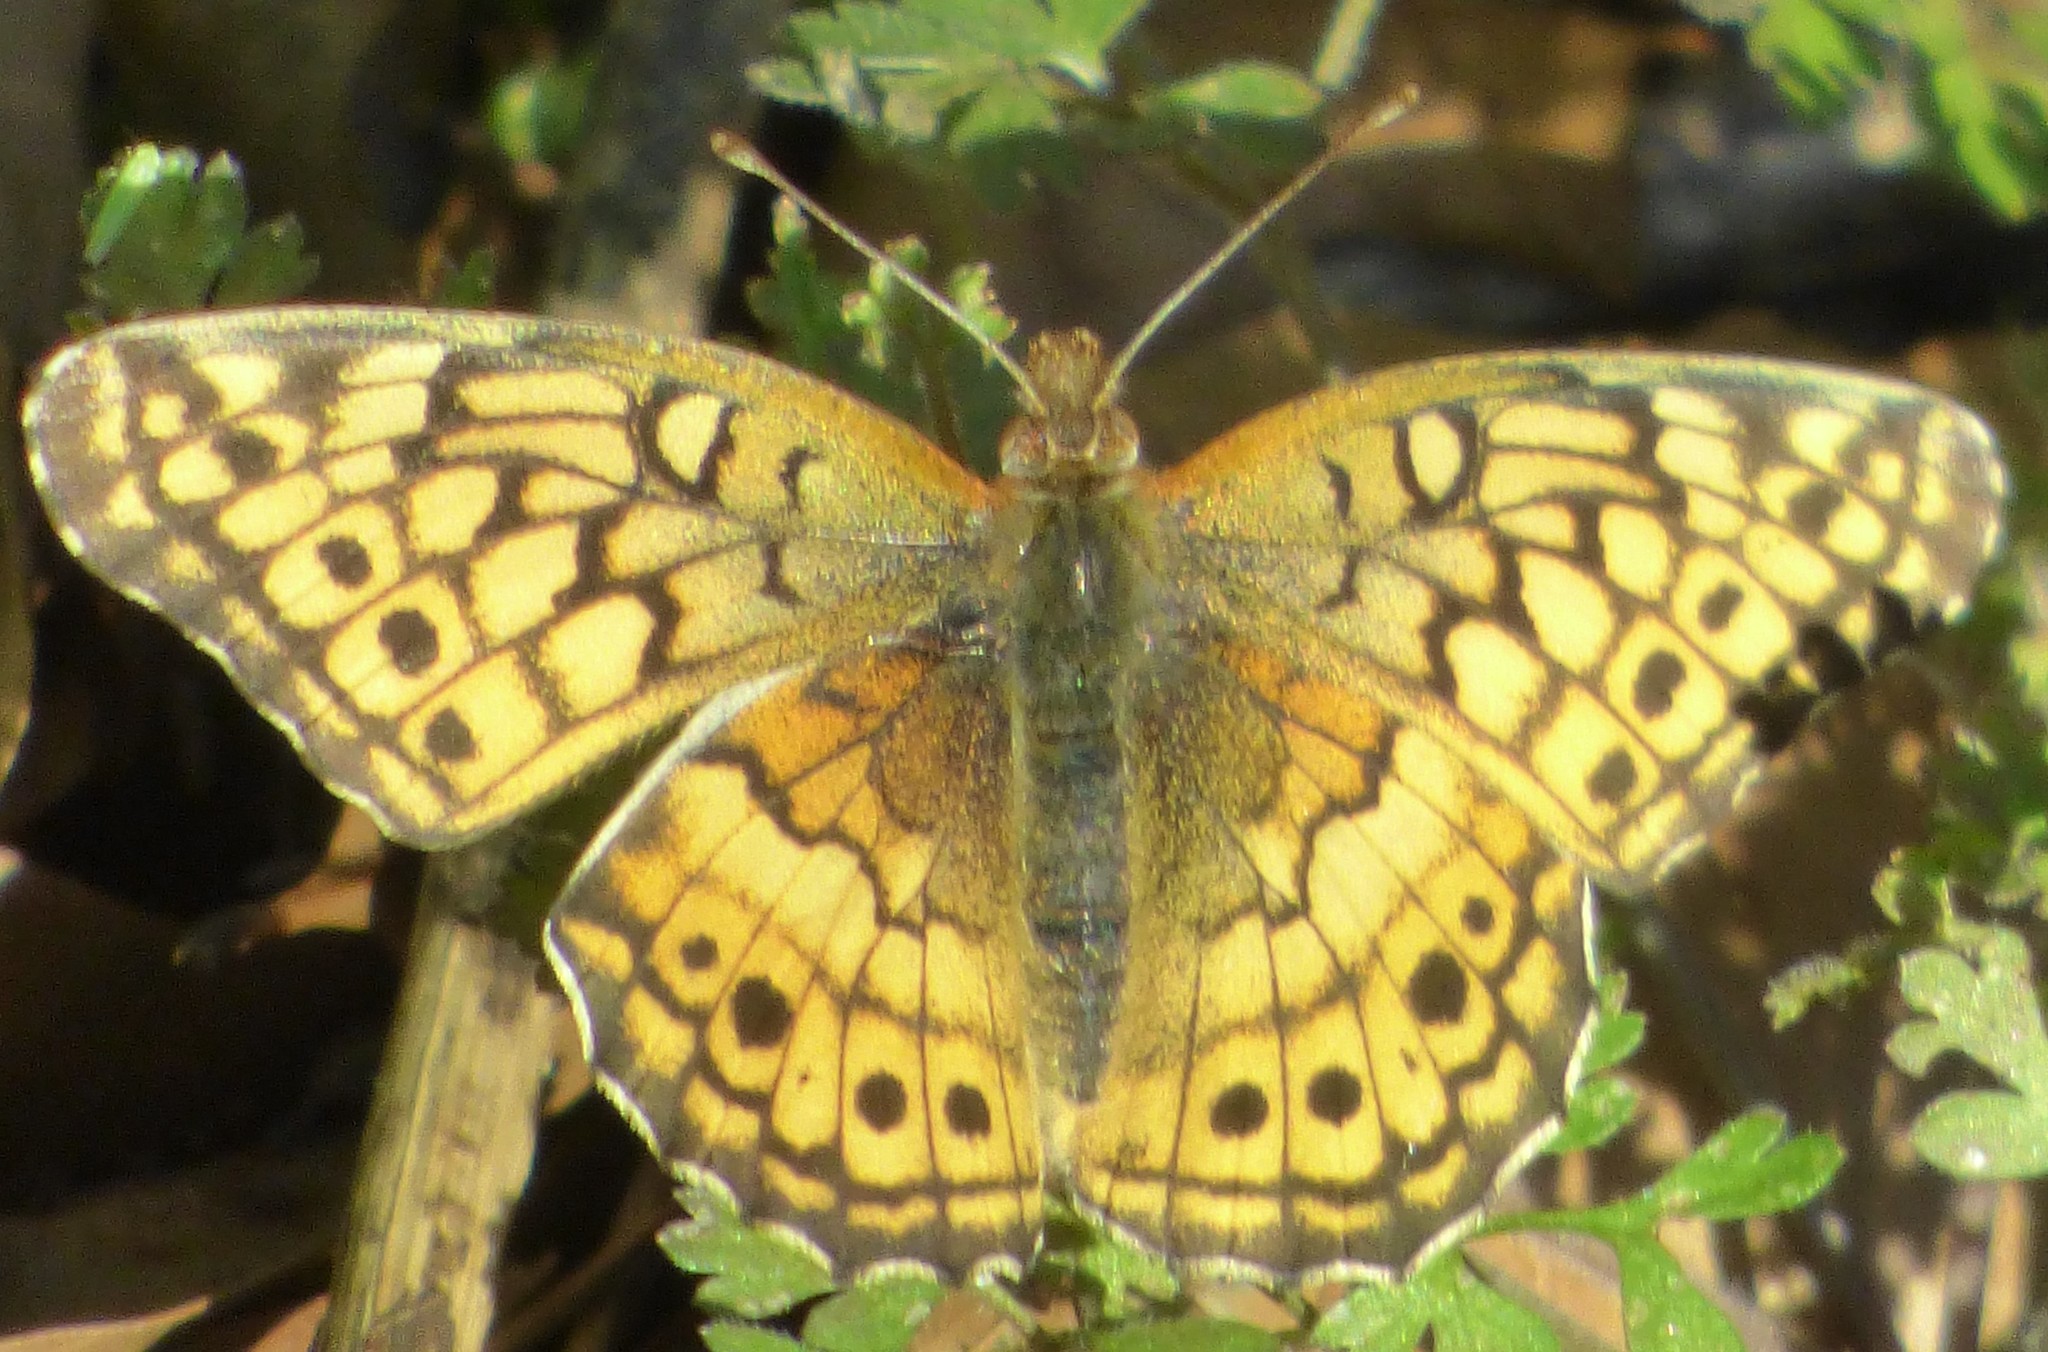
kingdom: Animalia
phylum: Arthropoda
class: Insecta
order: Lepidoptera
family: Nymphalidae
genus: Euptoieta
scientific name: Euptoieta claudia
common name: Variegated fritillary
